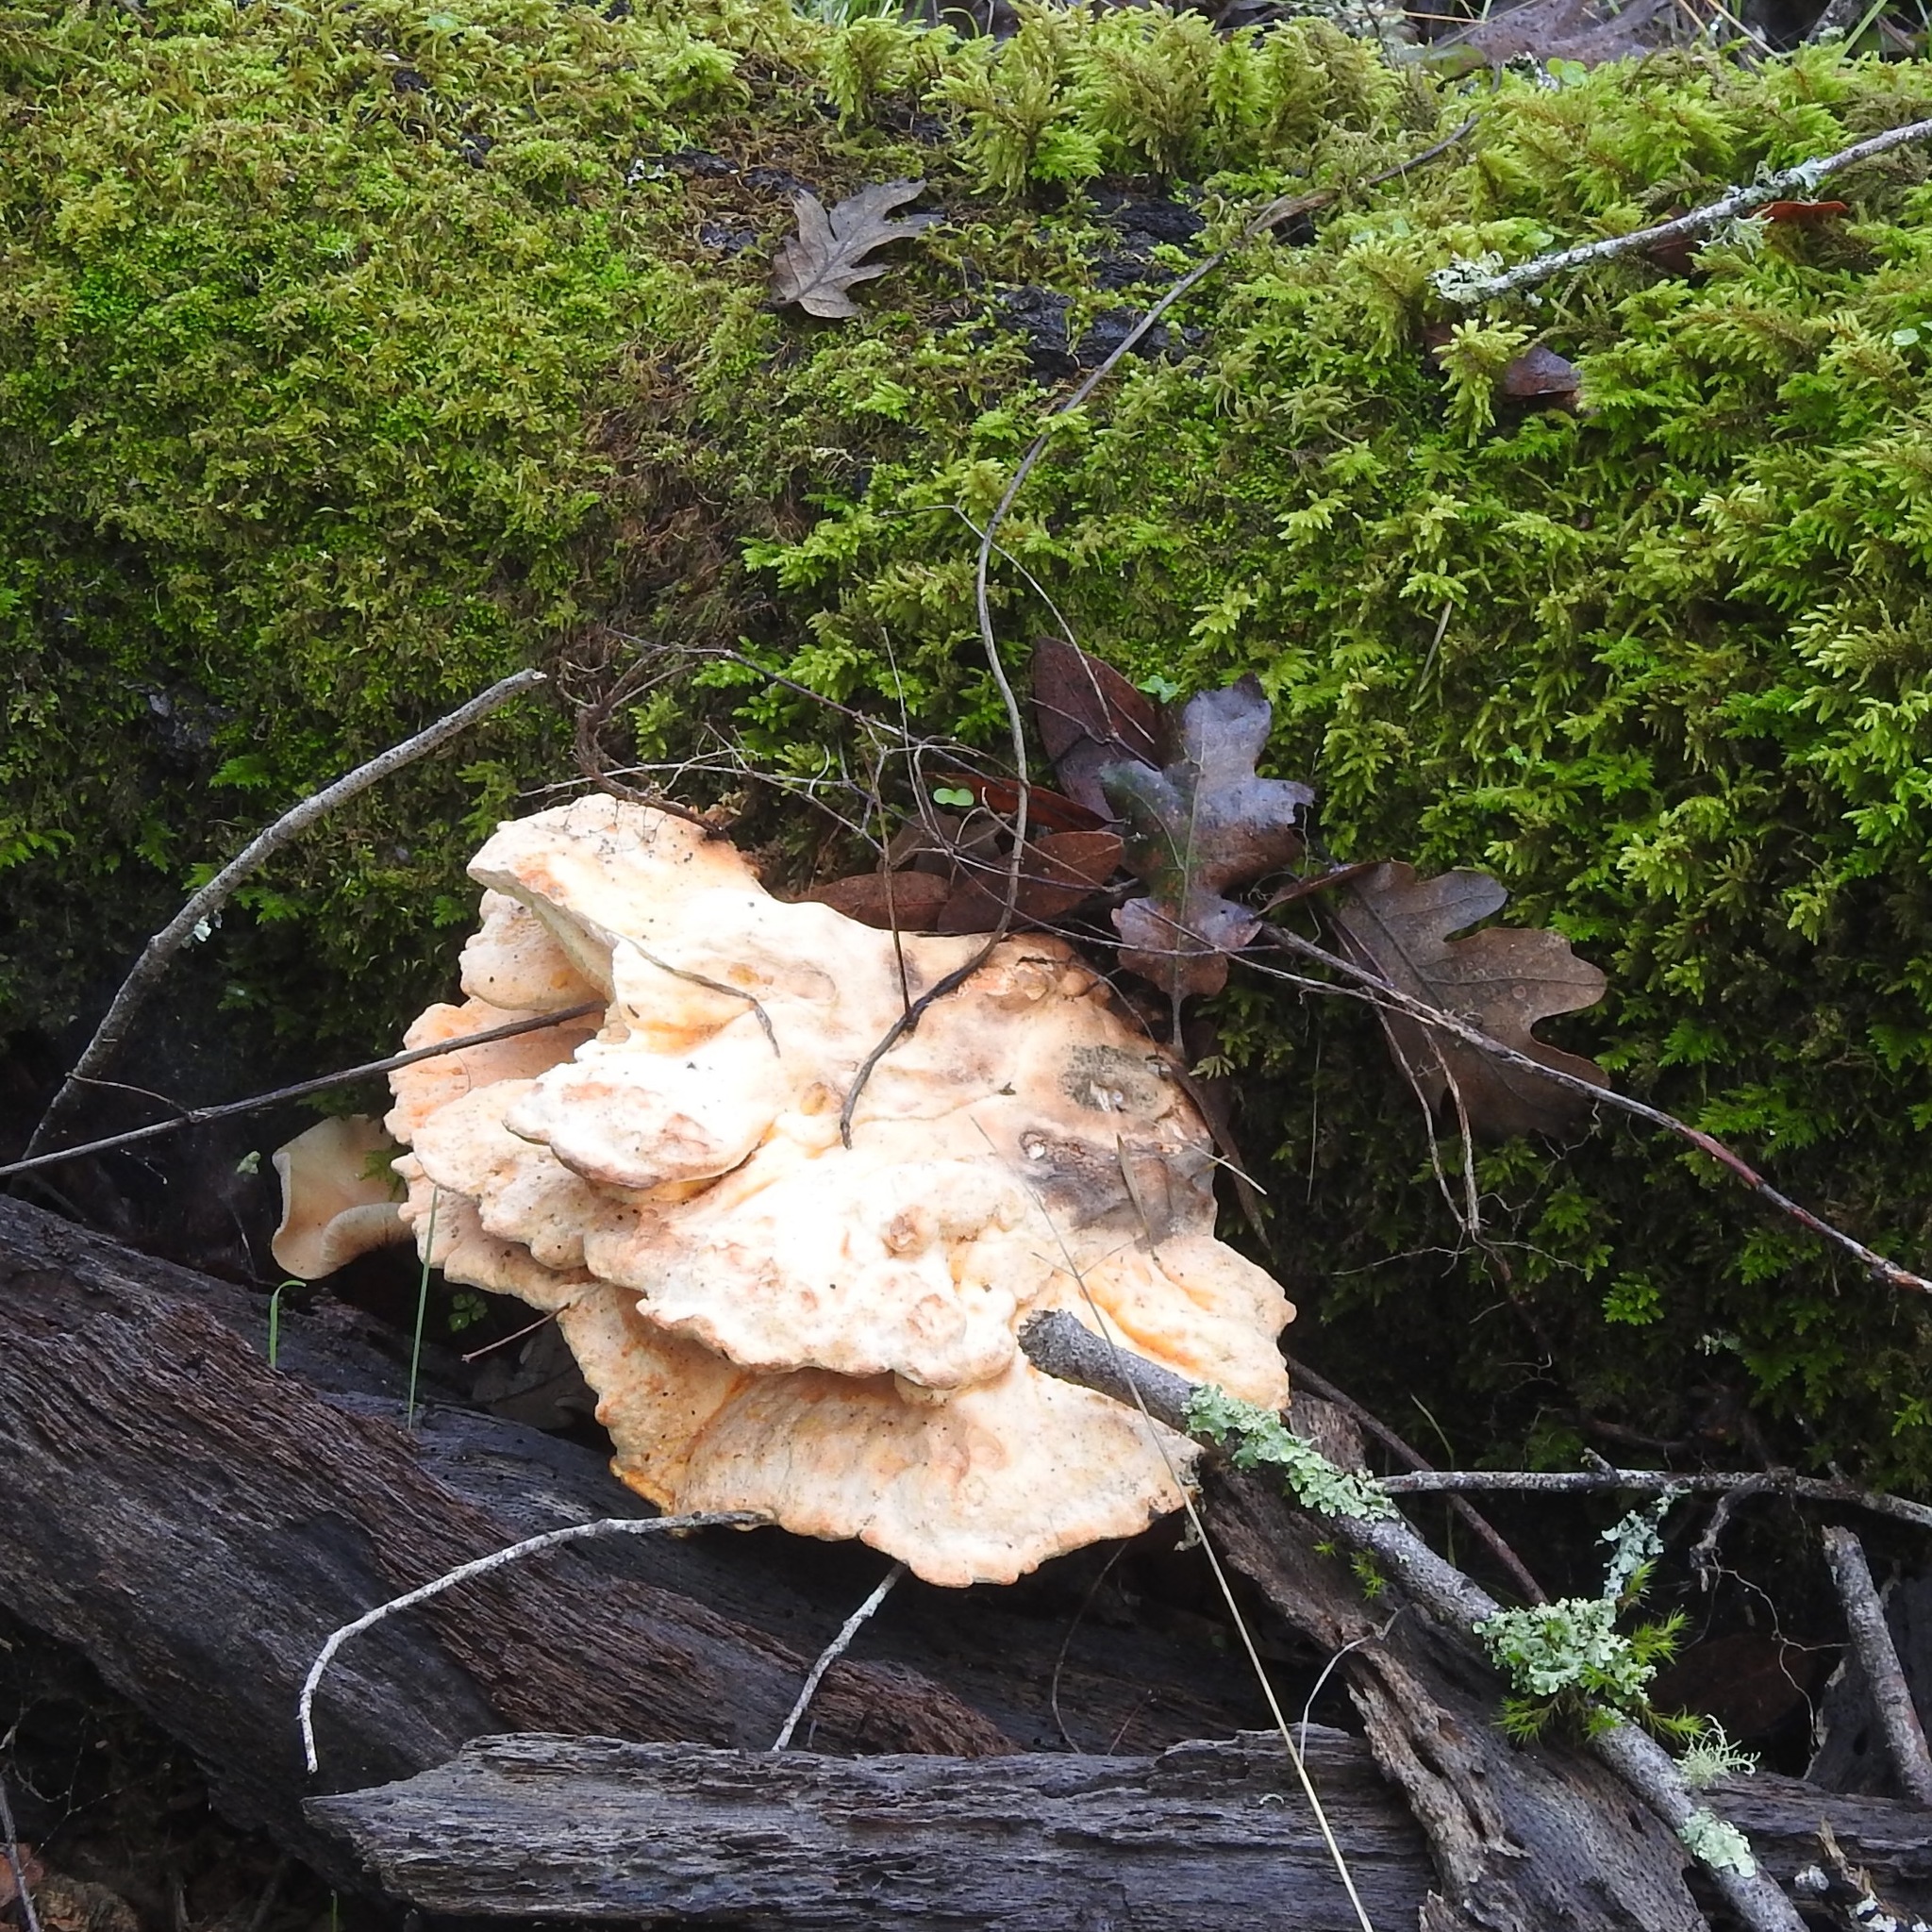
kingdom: Fungi
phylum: Basidiomycota
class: Agaricomycetes
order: Polyporales
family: Laetiporaceae
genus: Laetiporus
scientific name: Laetiporus gilbertsonii
